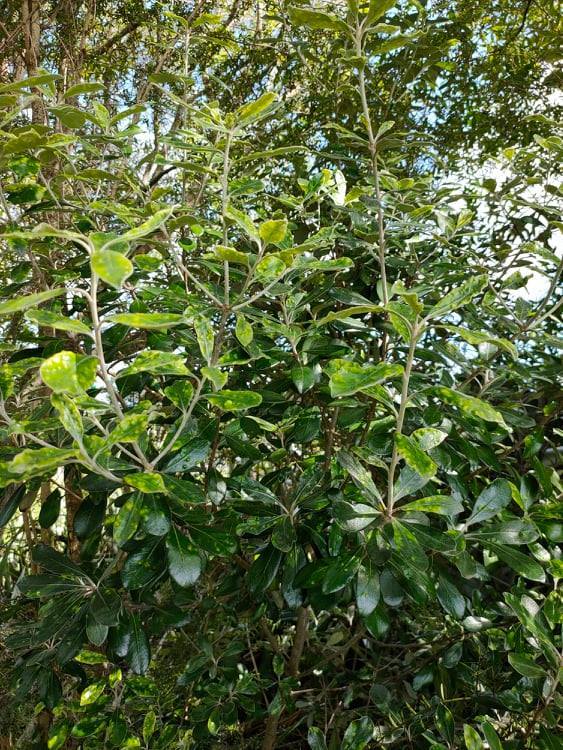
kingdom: Plantae
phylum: Tracheophyta
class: Magnoliopsida
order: Apiales
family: Pittosporaceae
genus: Pittosporum
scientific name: Pittosporum crassifolium
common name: Karo
